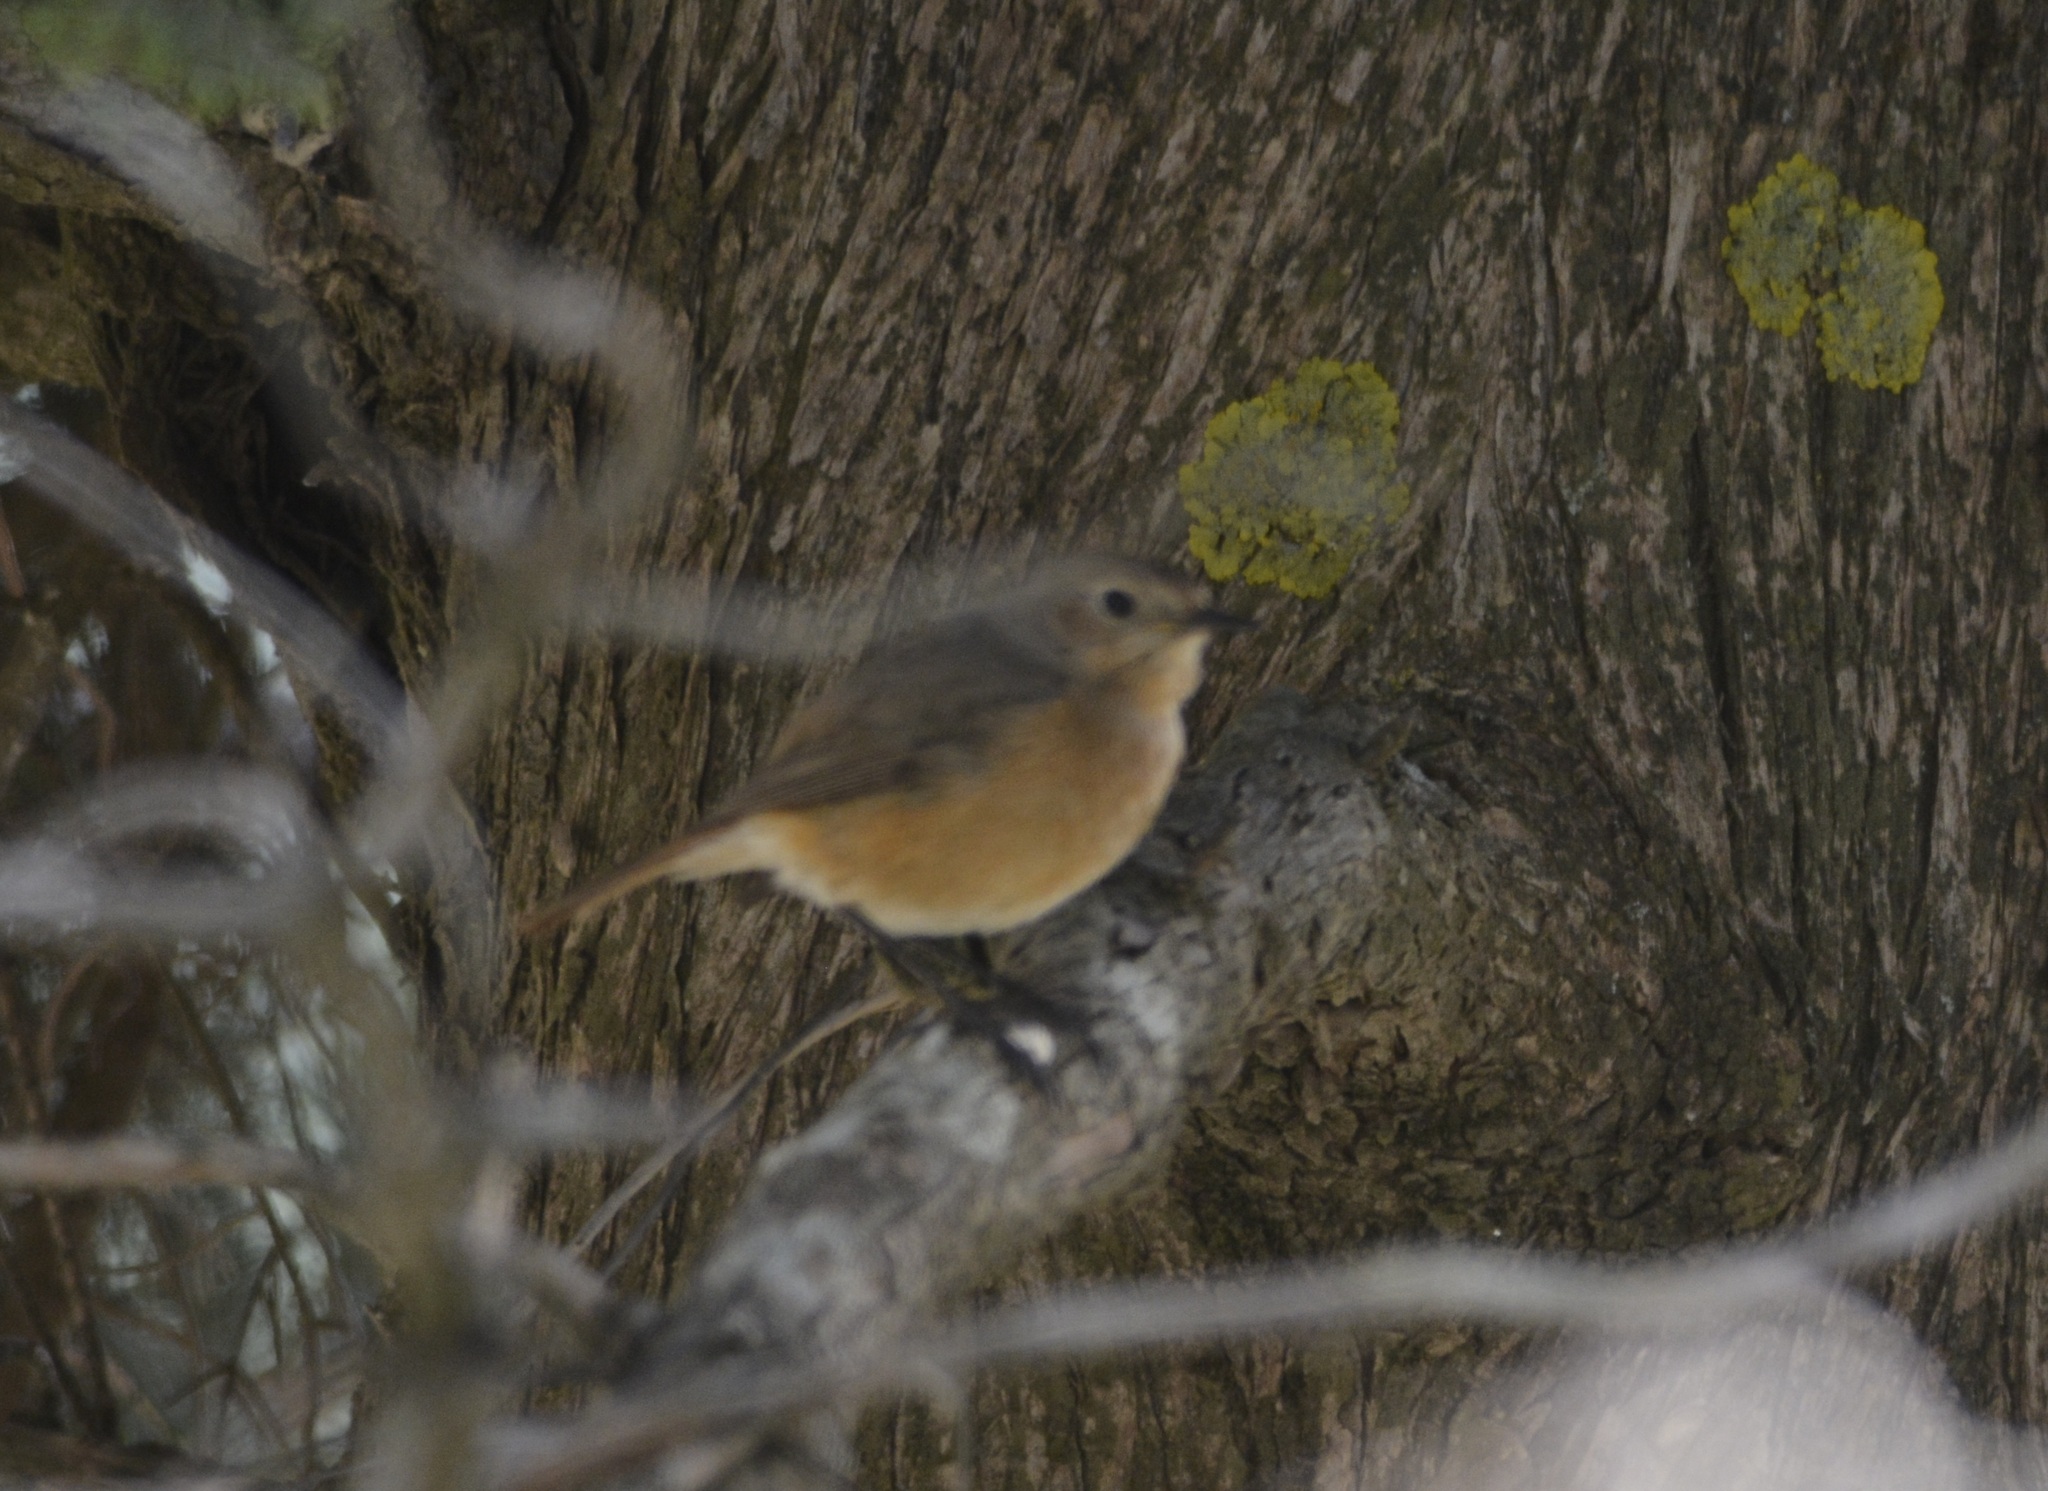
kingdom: Animalia
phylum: Chordata
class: Aves
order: Passeriformes
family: Muscicapidae
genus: Phoenicurus
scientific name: Phoenicurus moussieri
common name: Moussier's redstart
